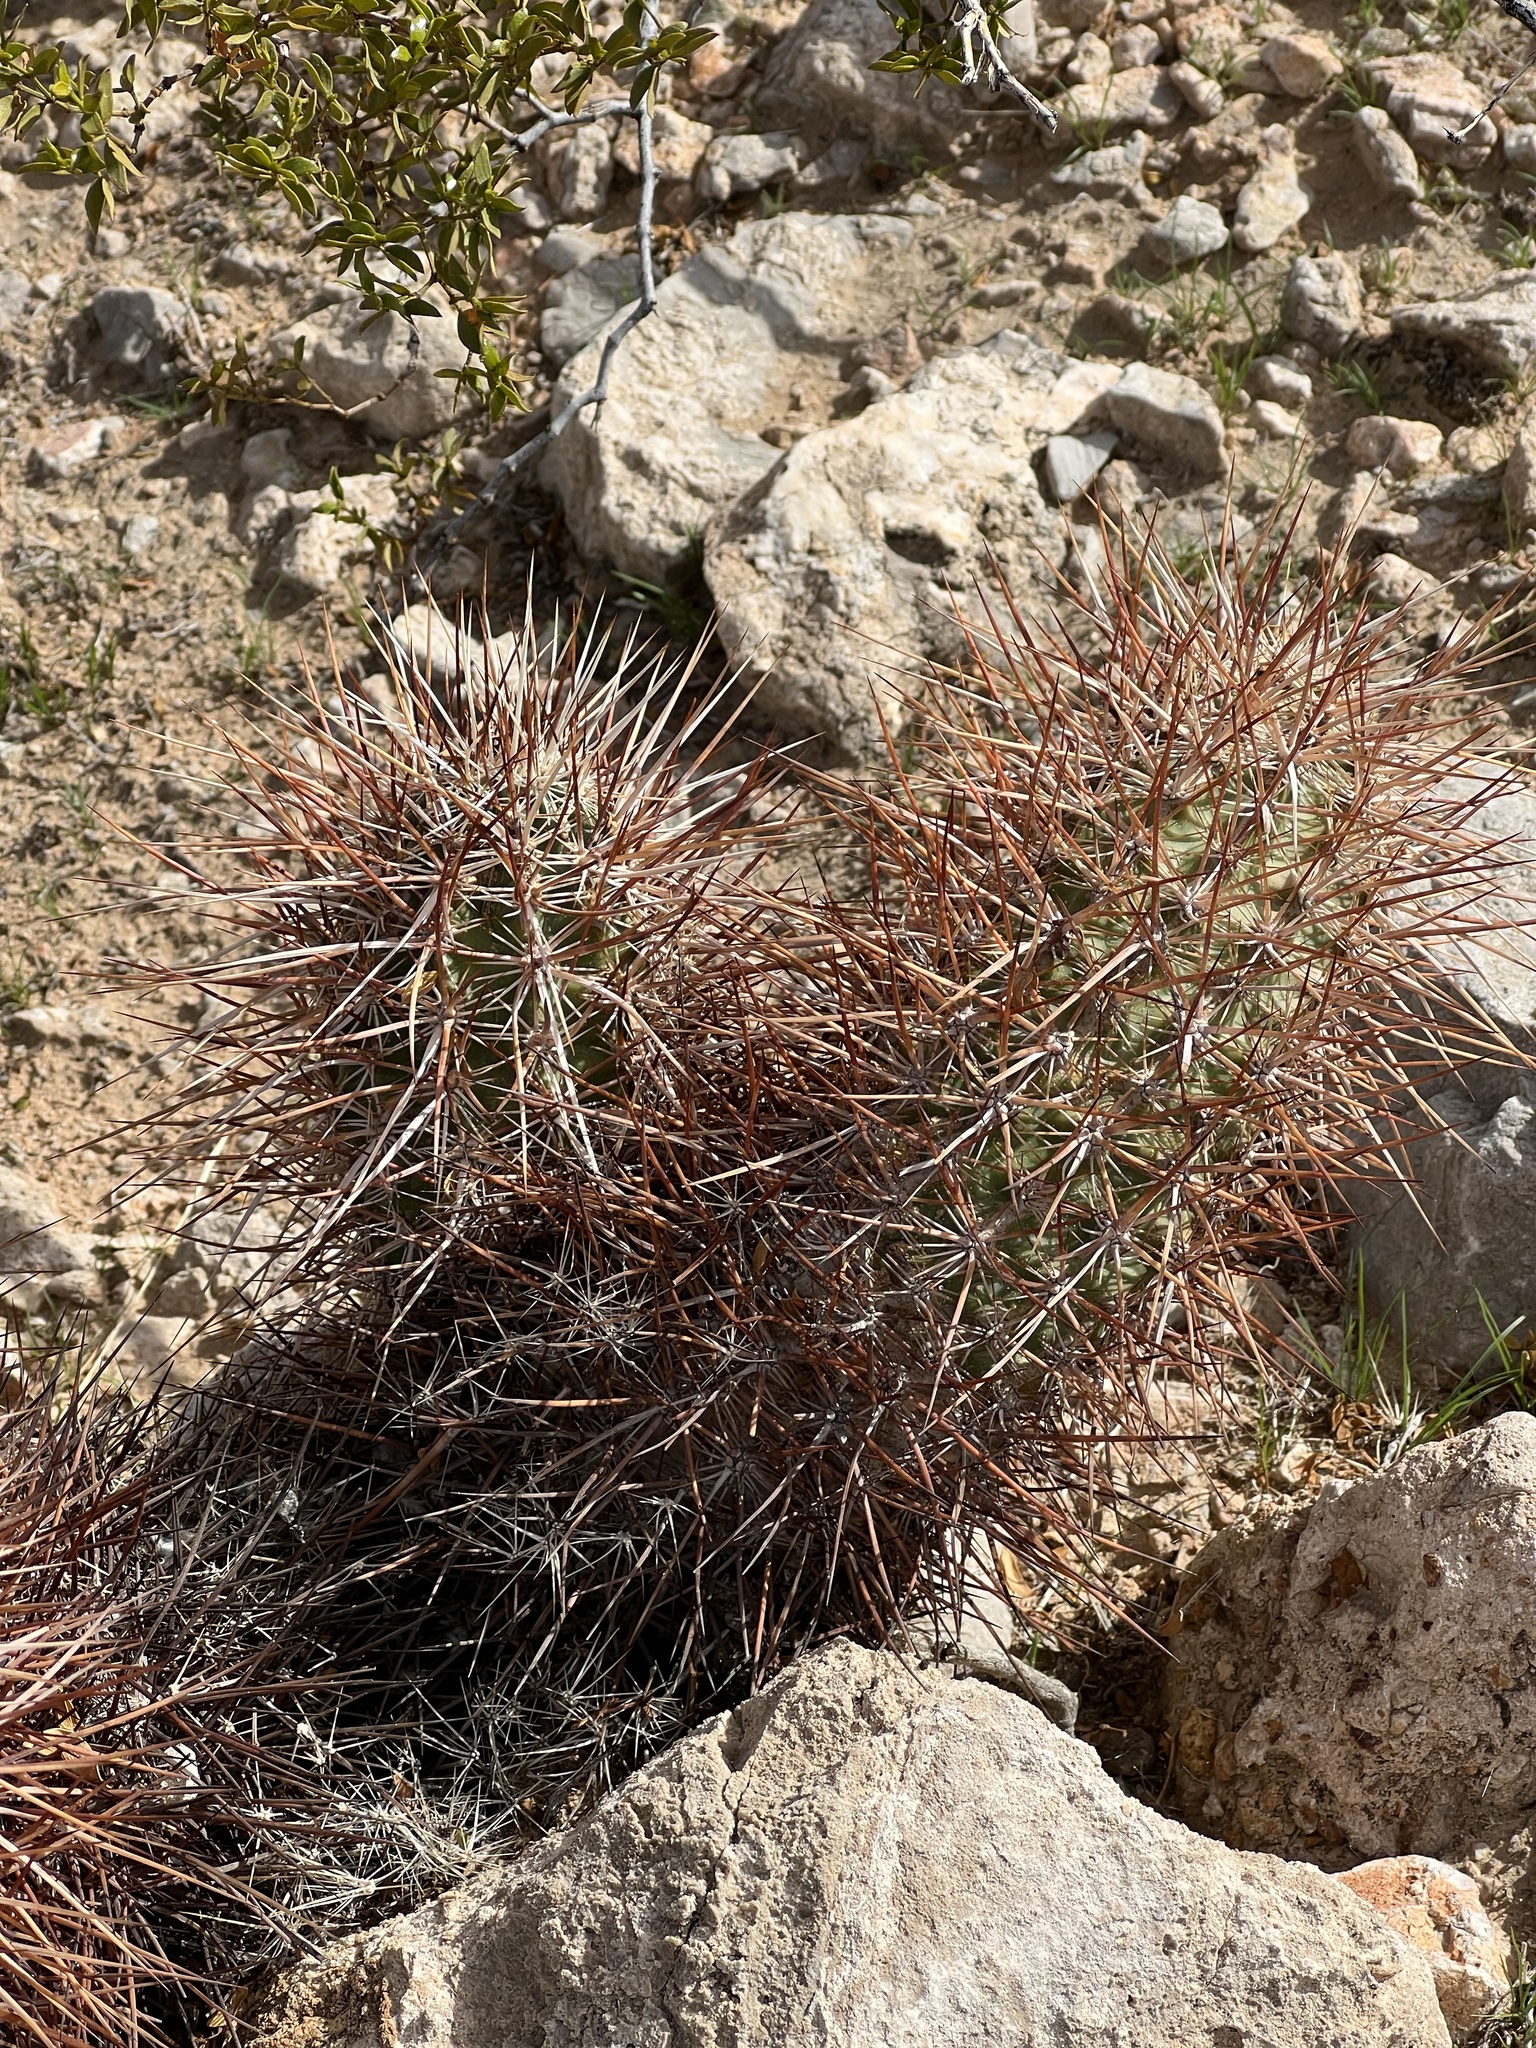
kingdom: Plantae
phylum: Tracheophyta
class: Magnoliopsida
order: Caryophyllales
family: Cactaceae
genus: Echinocereus
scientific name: Echinocereus engelmannii
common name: Engelmann's hedgehog cactus
